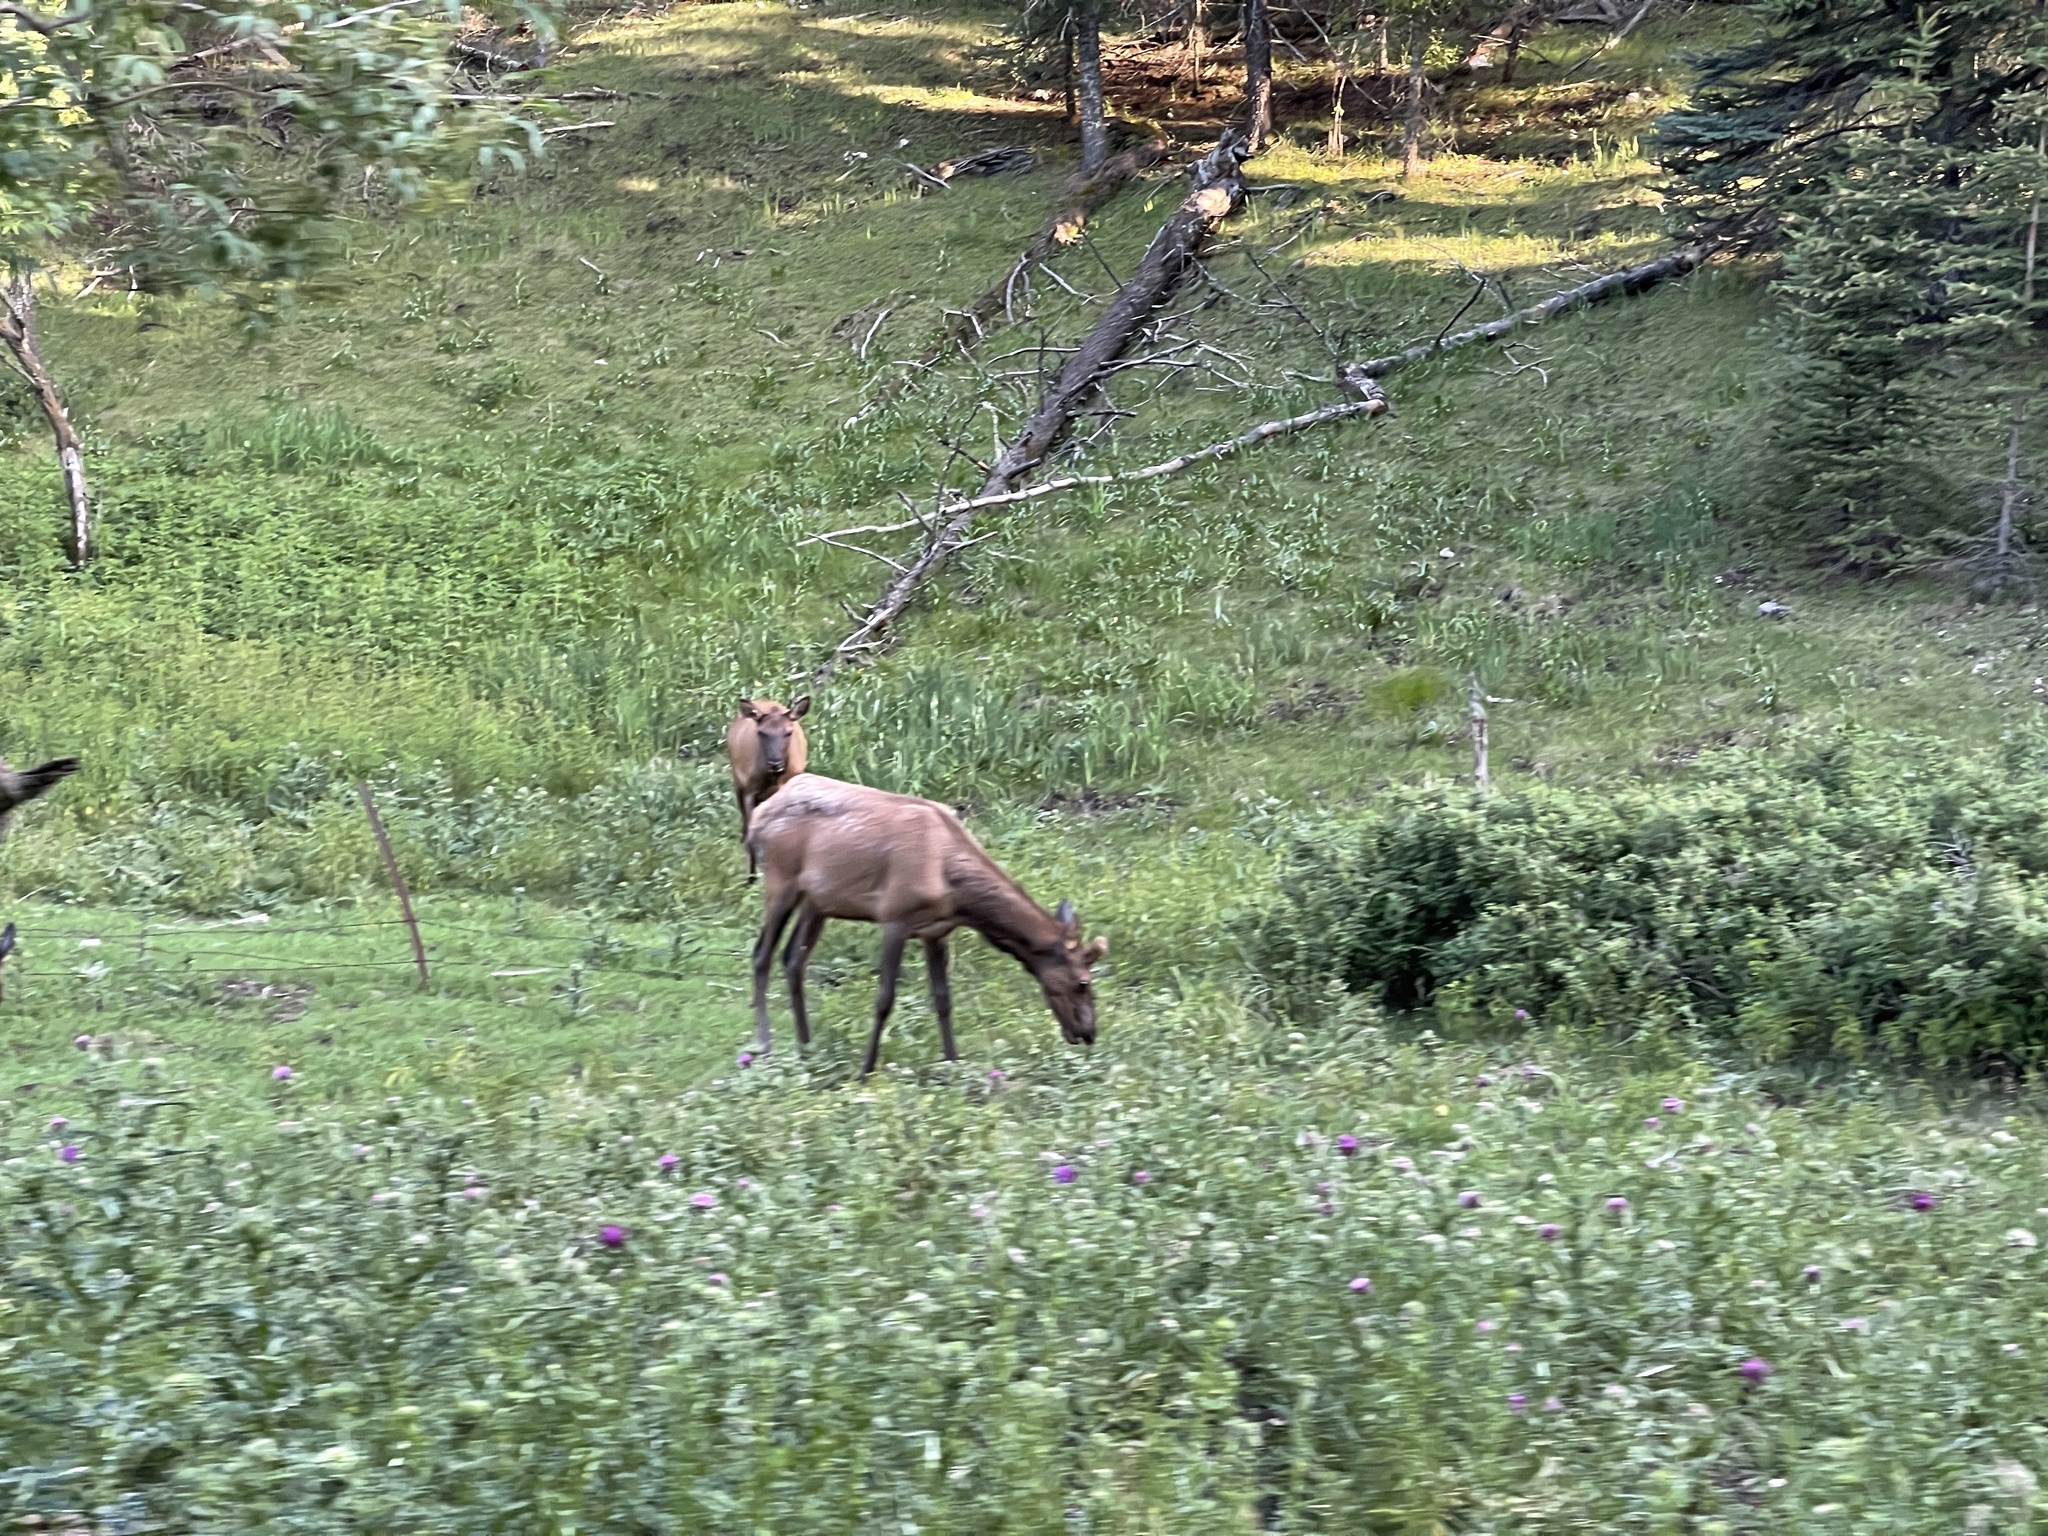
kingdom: Animalia
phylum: Chordata
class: Mammalia
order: Artiodactyla
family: Cervidae
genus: Cervus
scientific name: Cervus elaphus
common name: Red deer
